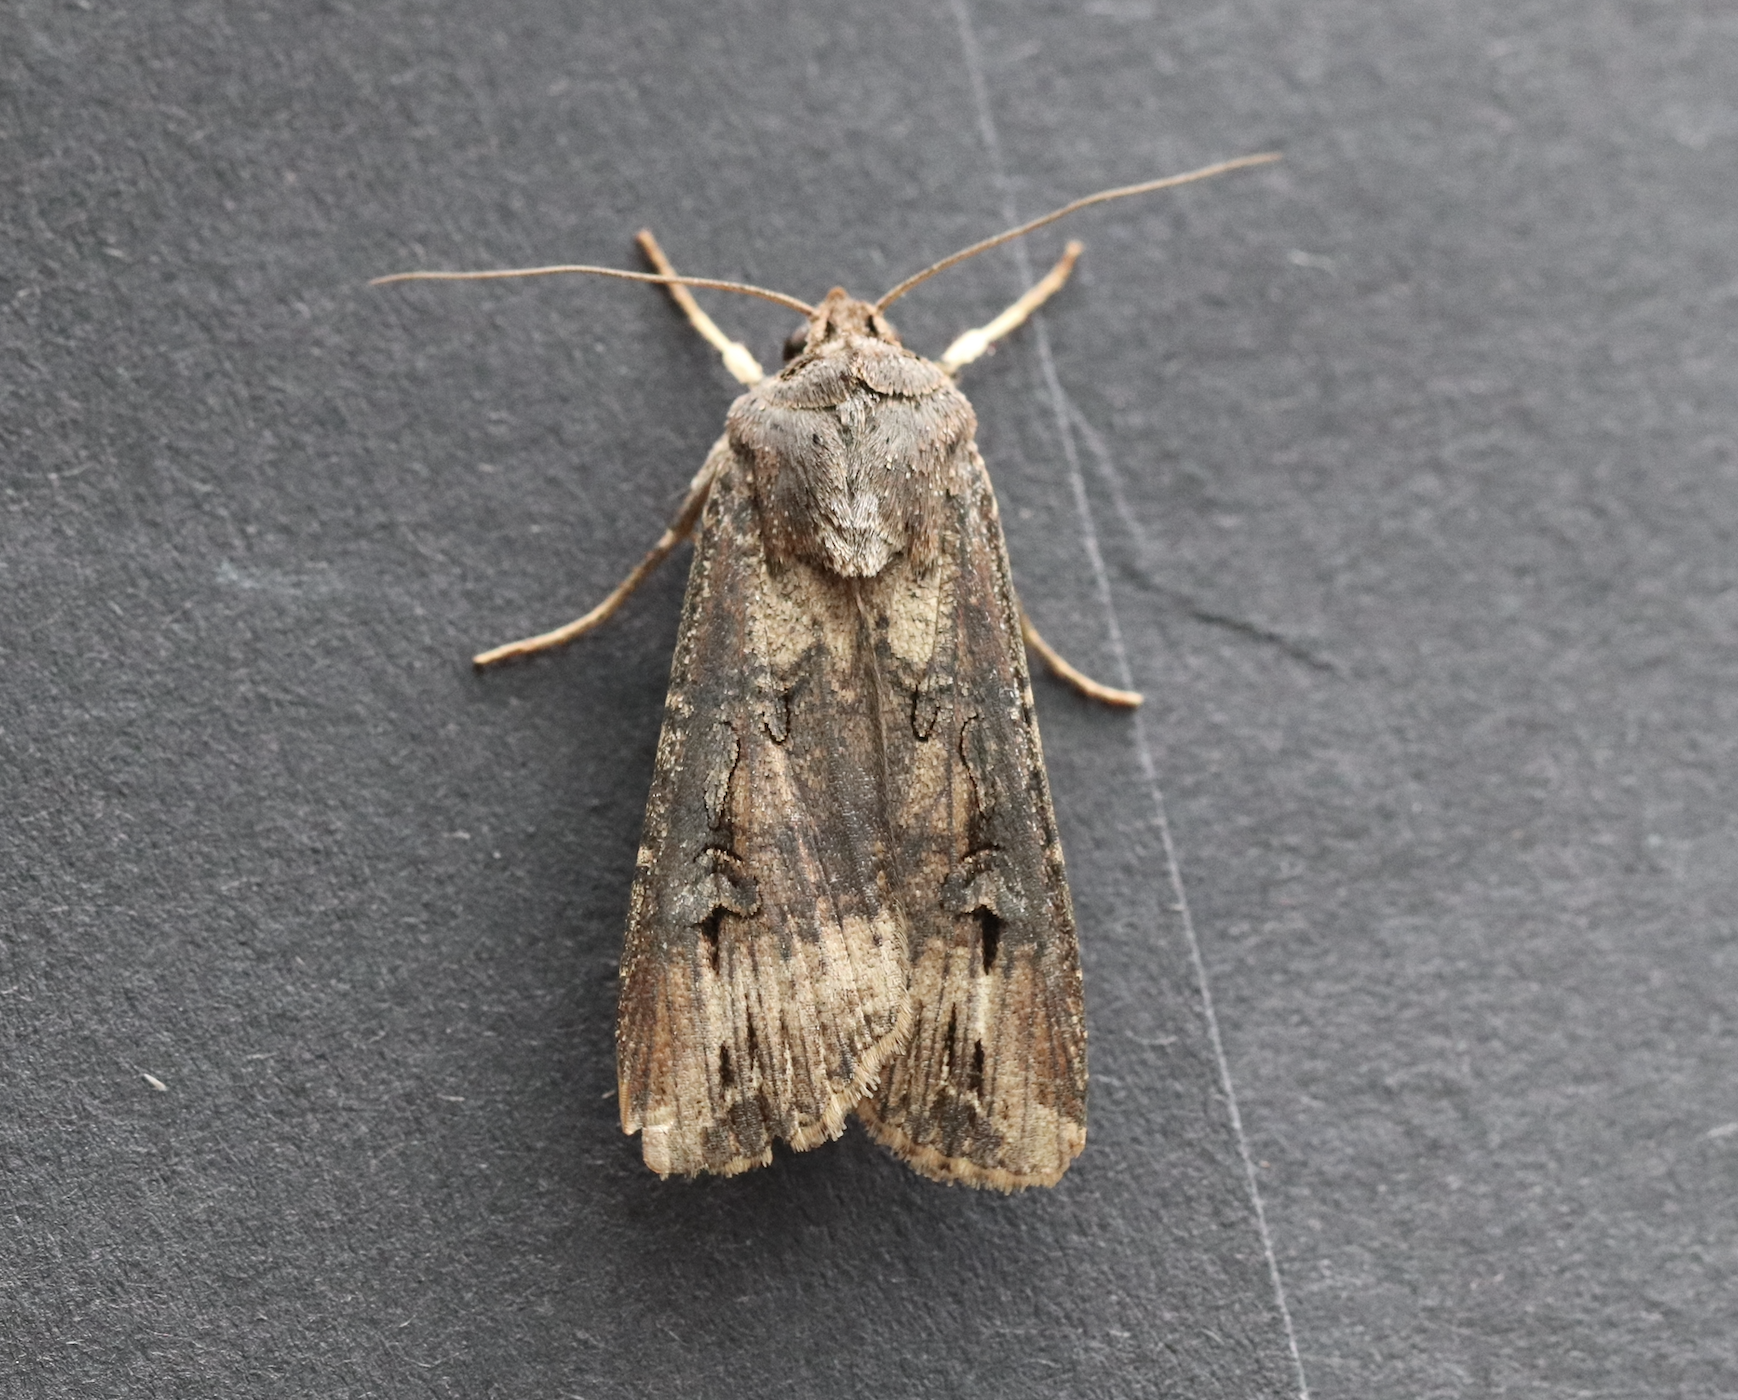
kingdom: Animalia
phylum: Arthropoda
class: Insecta
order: Lepidoptera
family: Noctuidae
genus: Agrotis
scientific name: Agrotis ipsilon
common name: Dark sword-grass
